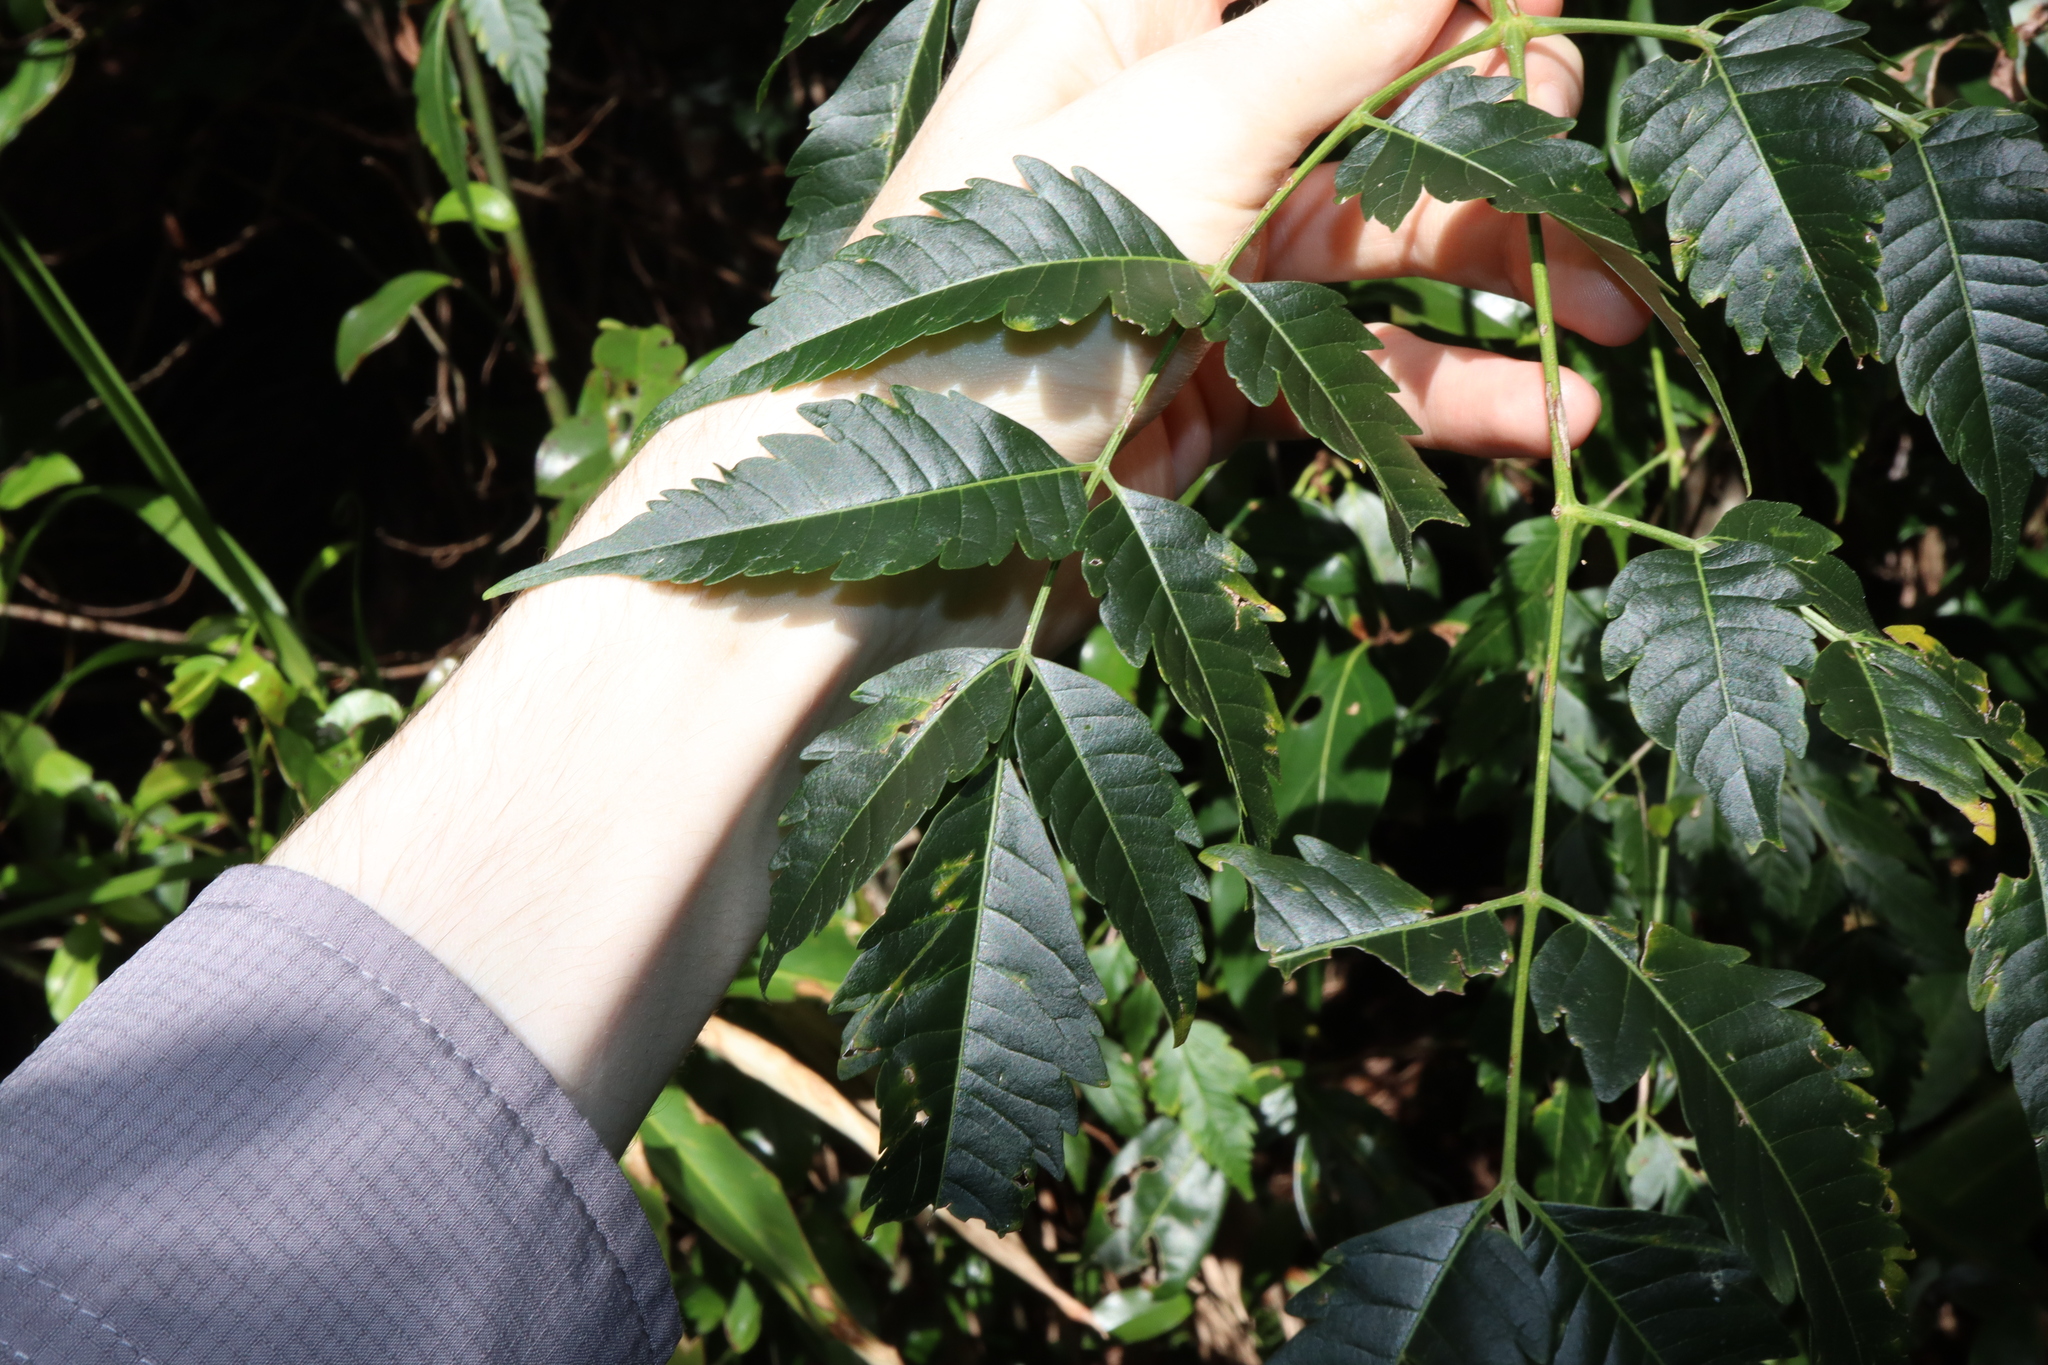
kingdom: Plantae
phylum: Tracheophyta
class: Magnoliopsida
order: Sapindales
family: Meliaceae
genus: Melia
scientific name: Melia azedarach
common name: Chinaberrytree
